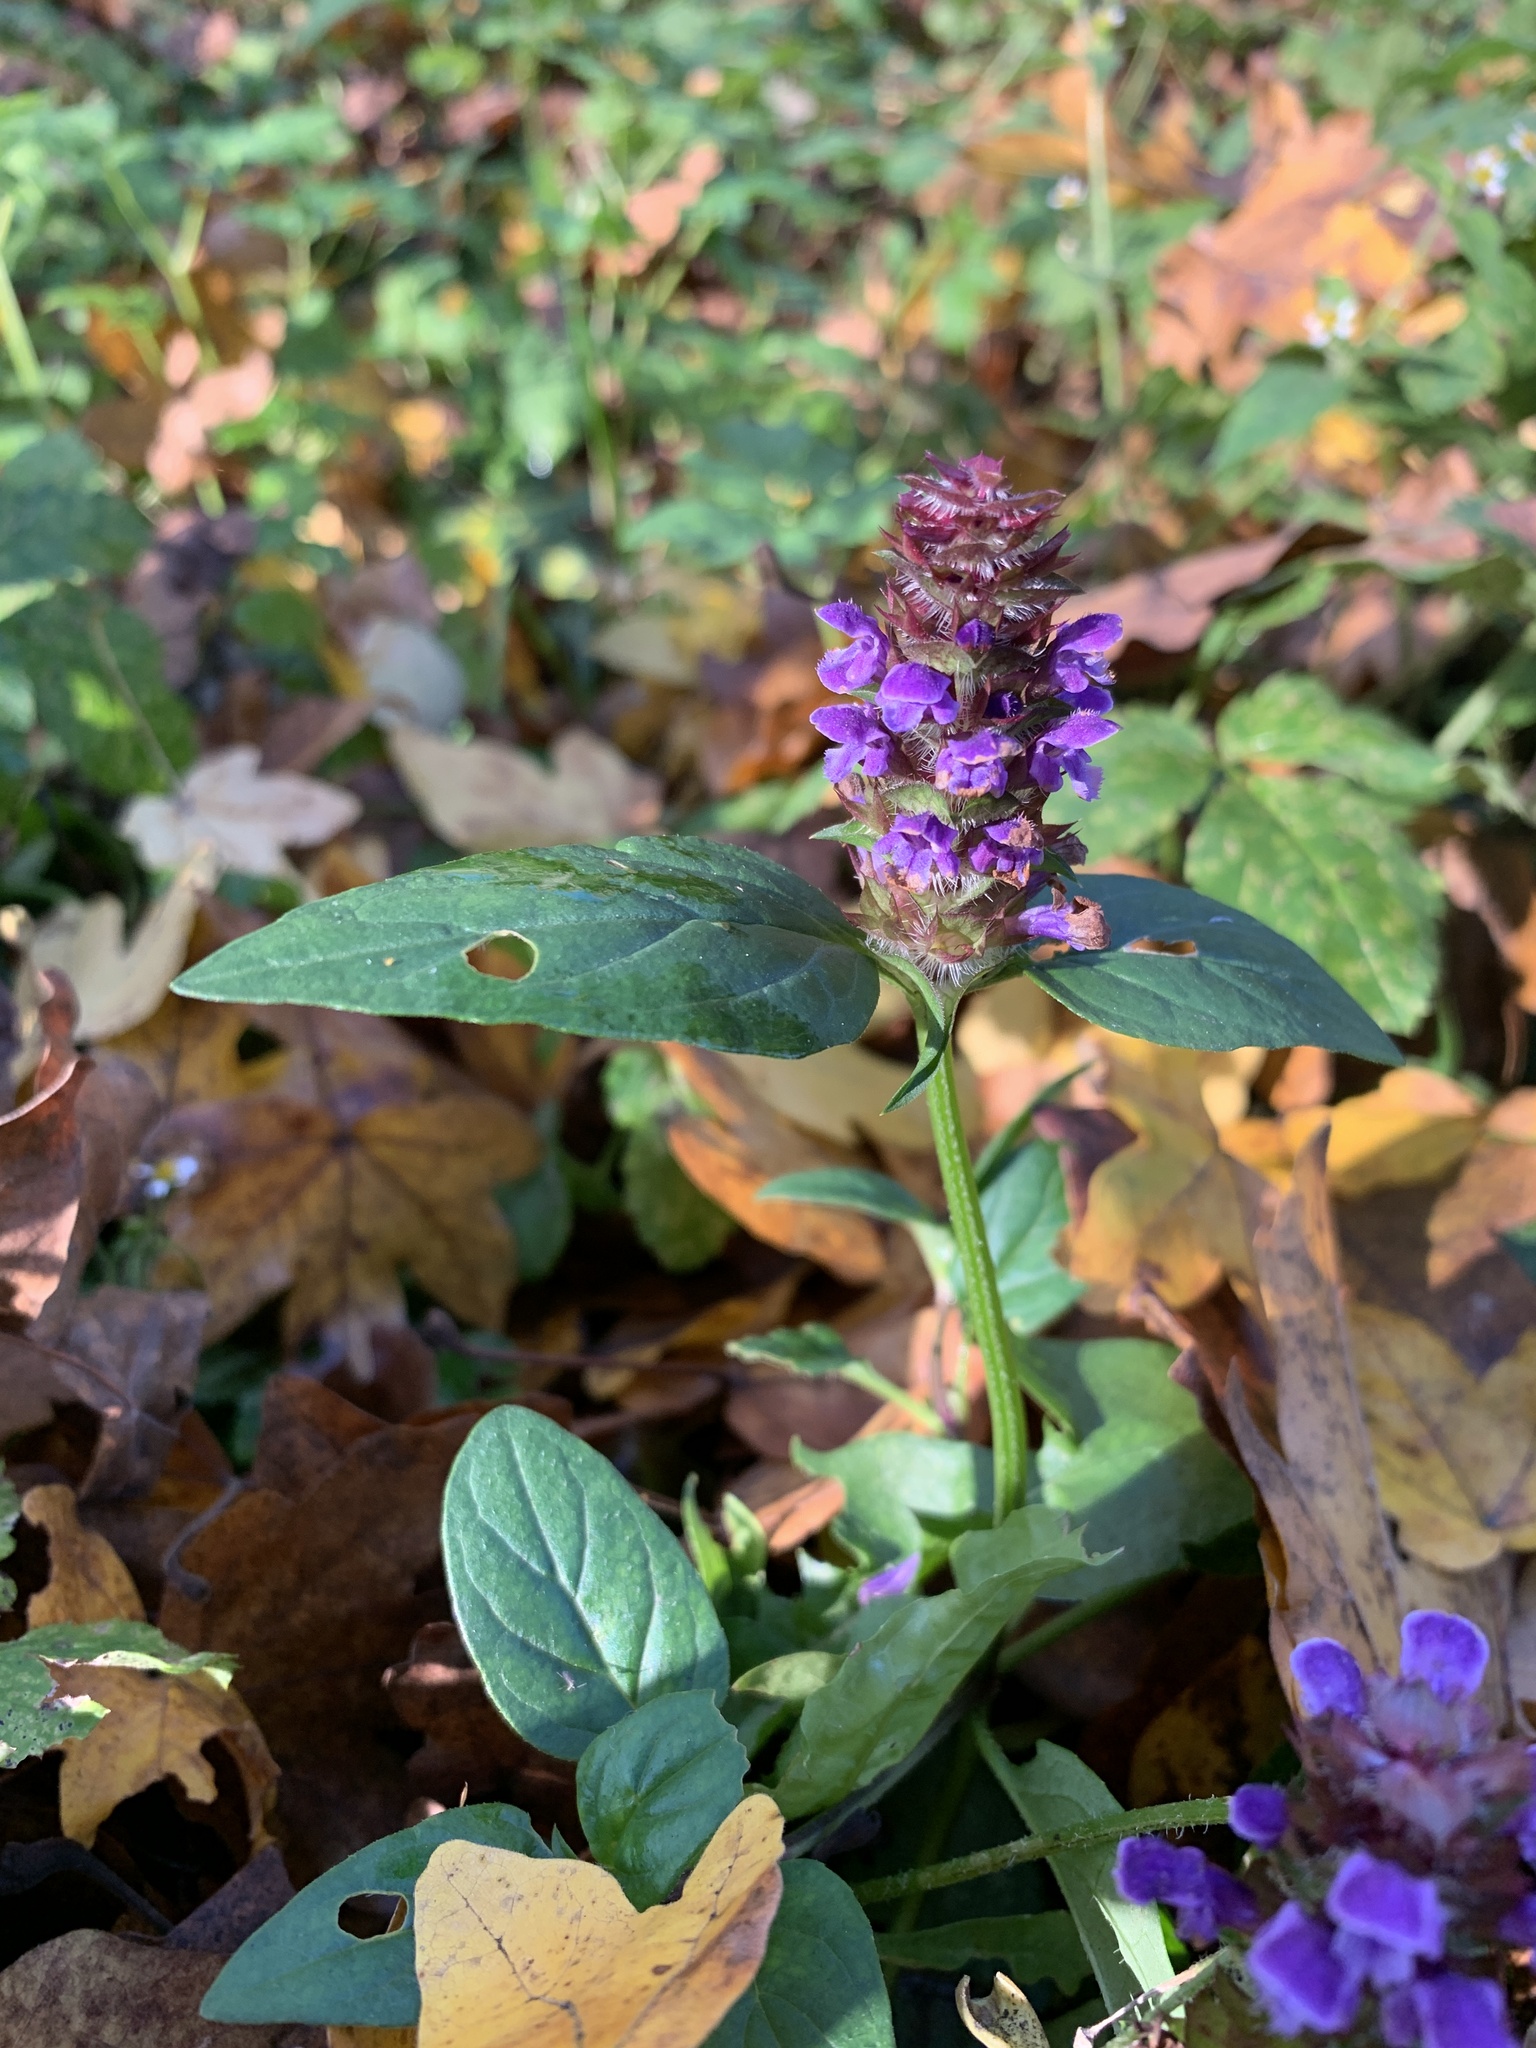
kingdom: Plantae
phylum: Tracheophyta
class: Magnoliopsida
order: Lamiales
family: Lamiaceae
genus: Prunella
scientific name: Prunella vulgaris
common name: Heal-all
